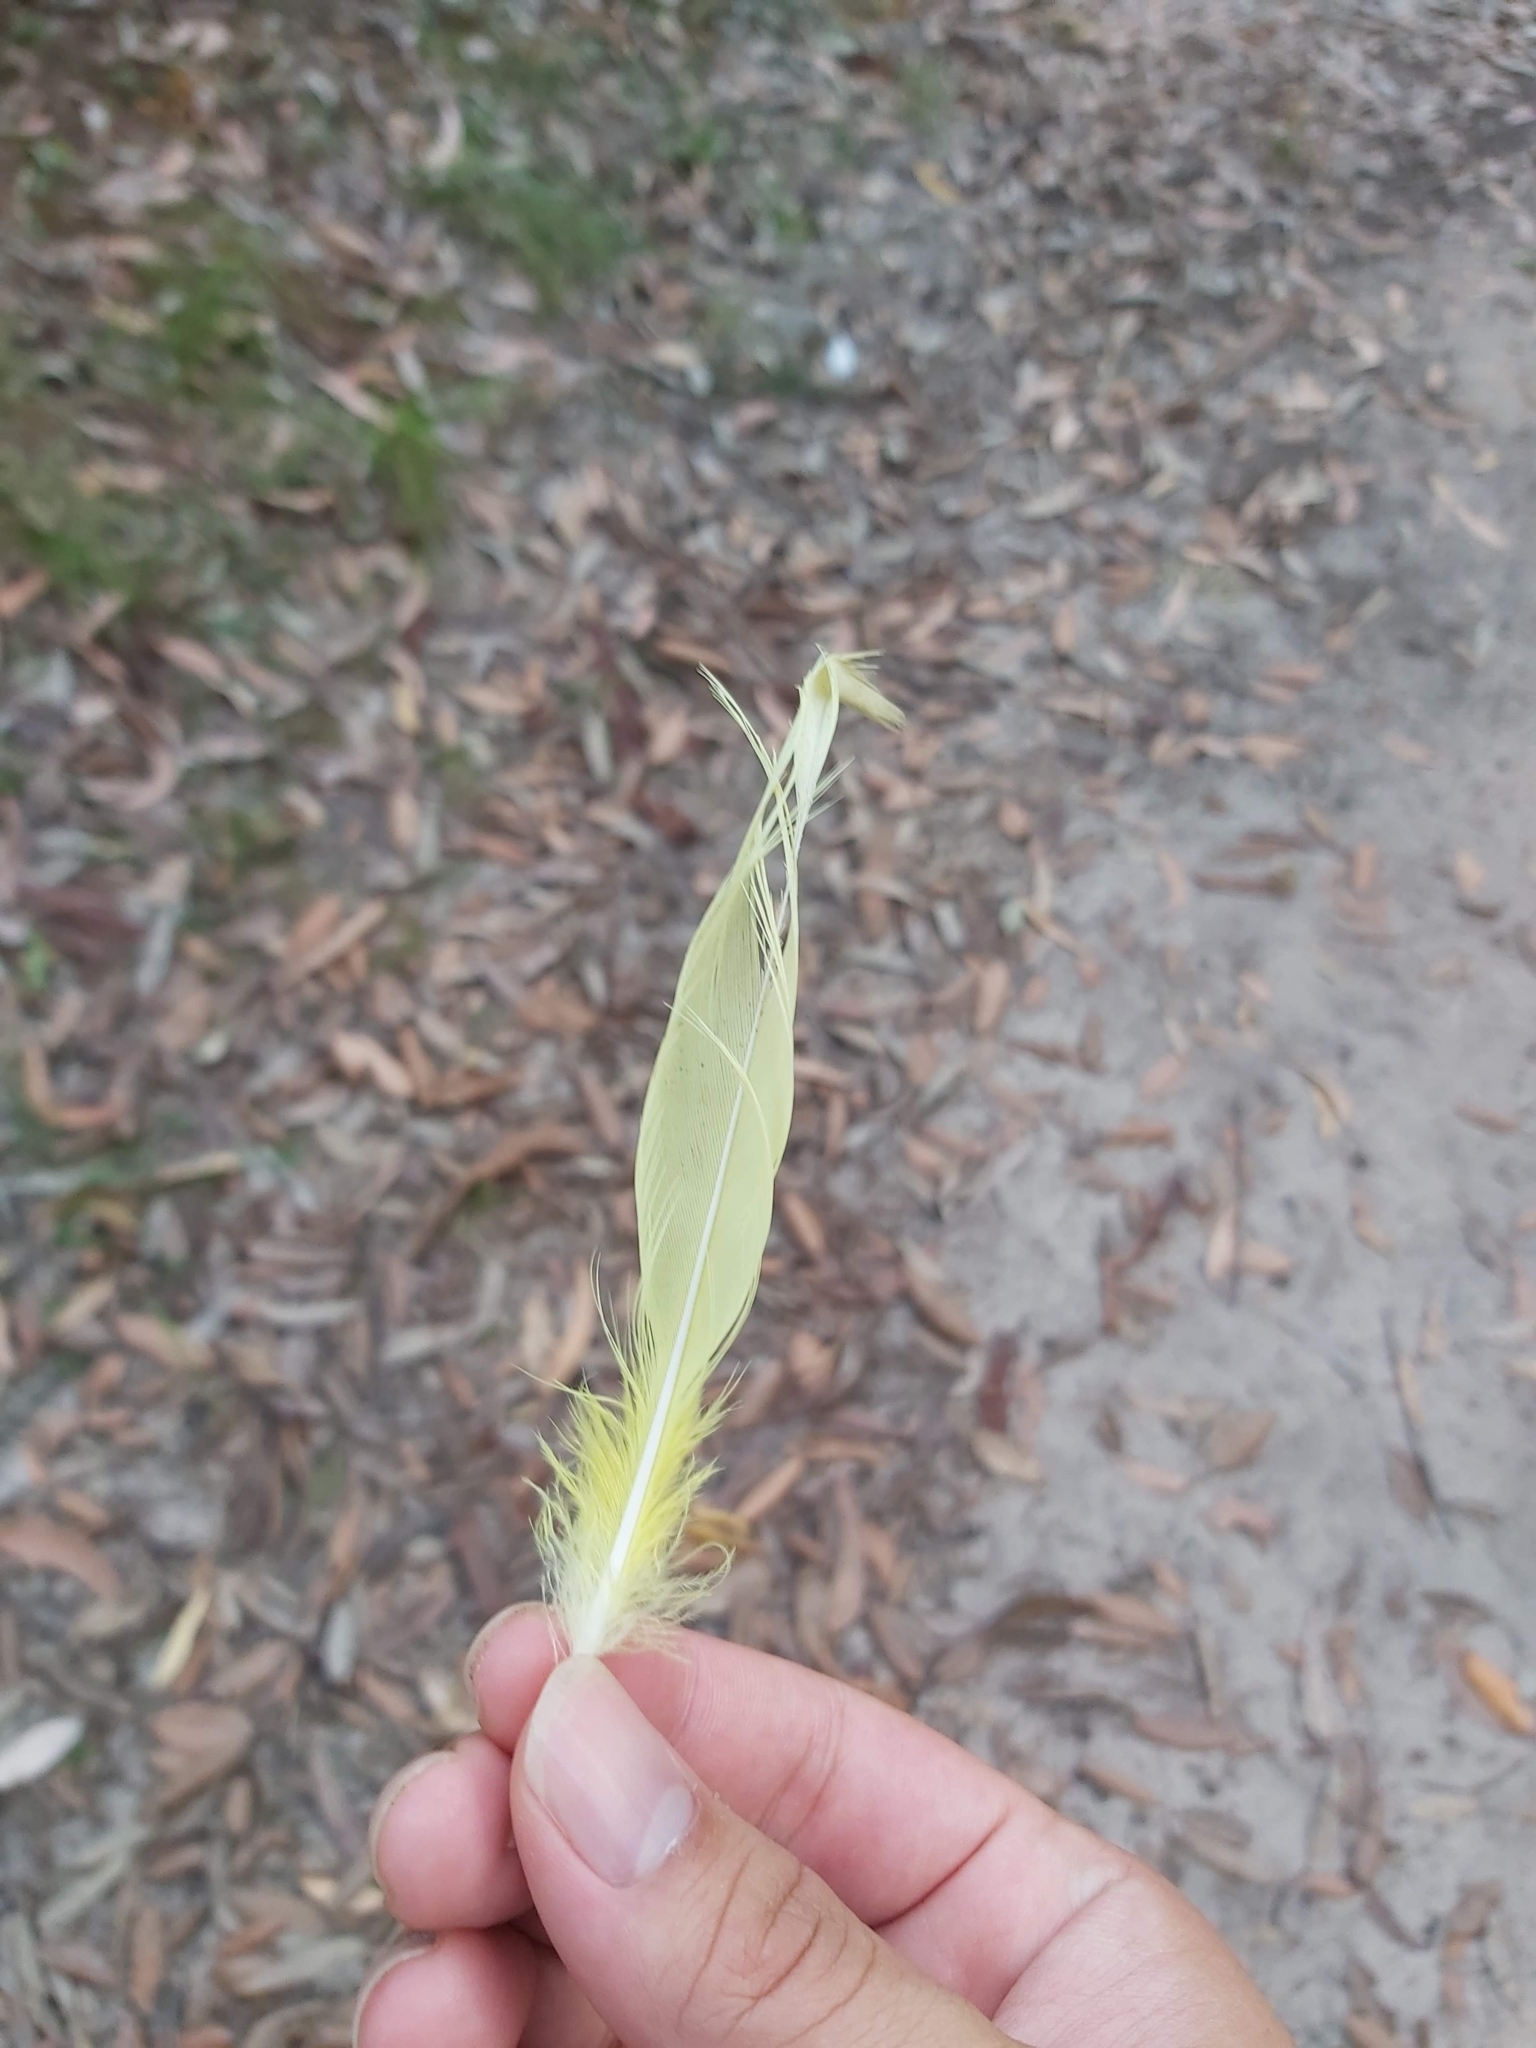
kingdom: Animalia
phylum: Chordata
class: Aves
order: Psittaciformes
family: Psittacidae
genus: Cacatua
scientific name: Cacatua galerita
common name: Sulphur-crested cockatoo
